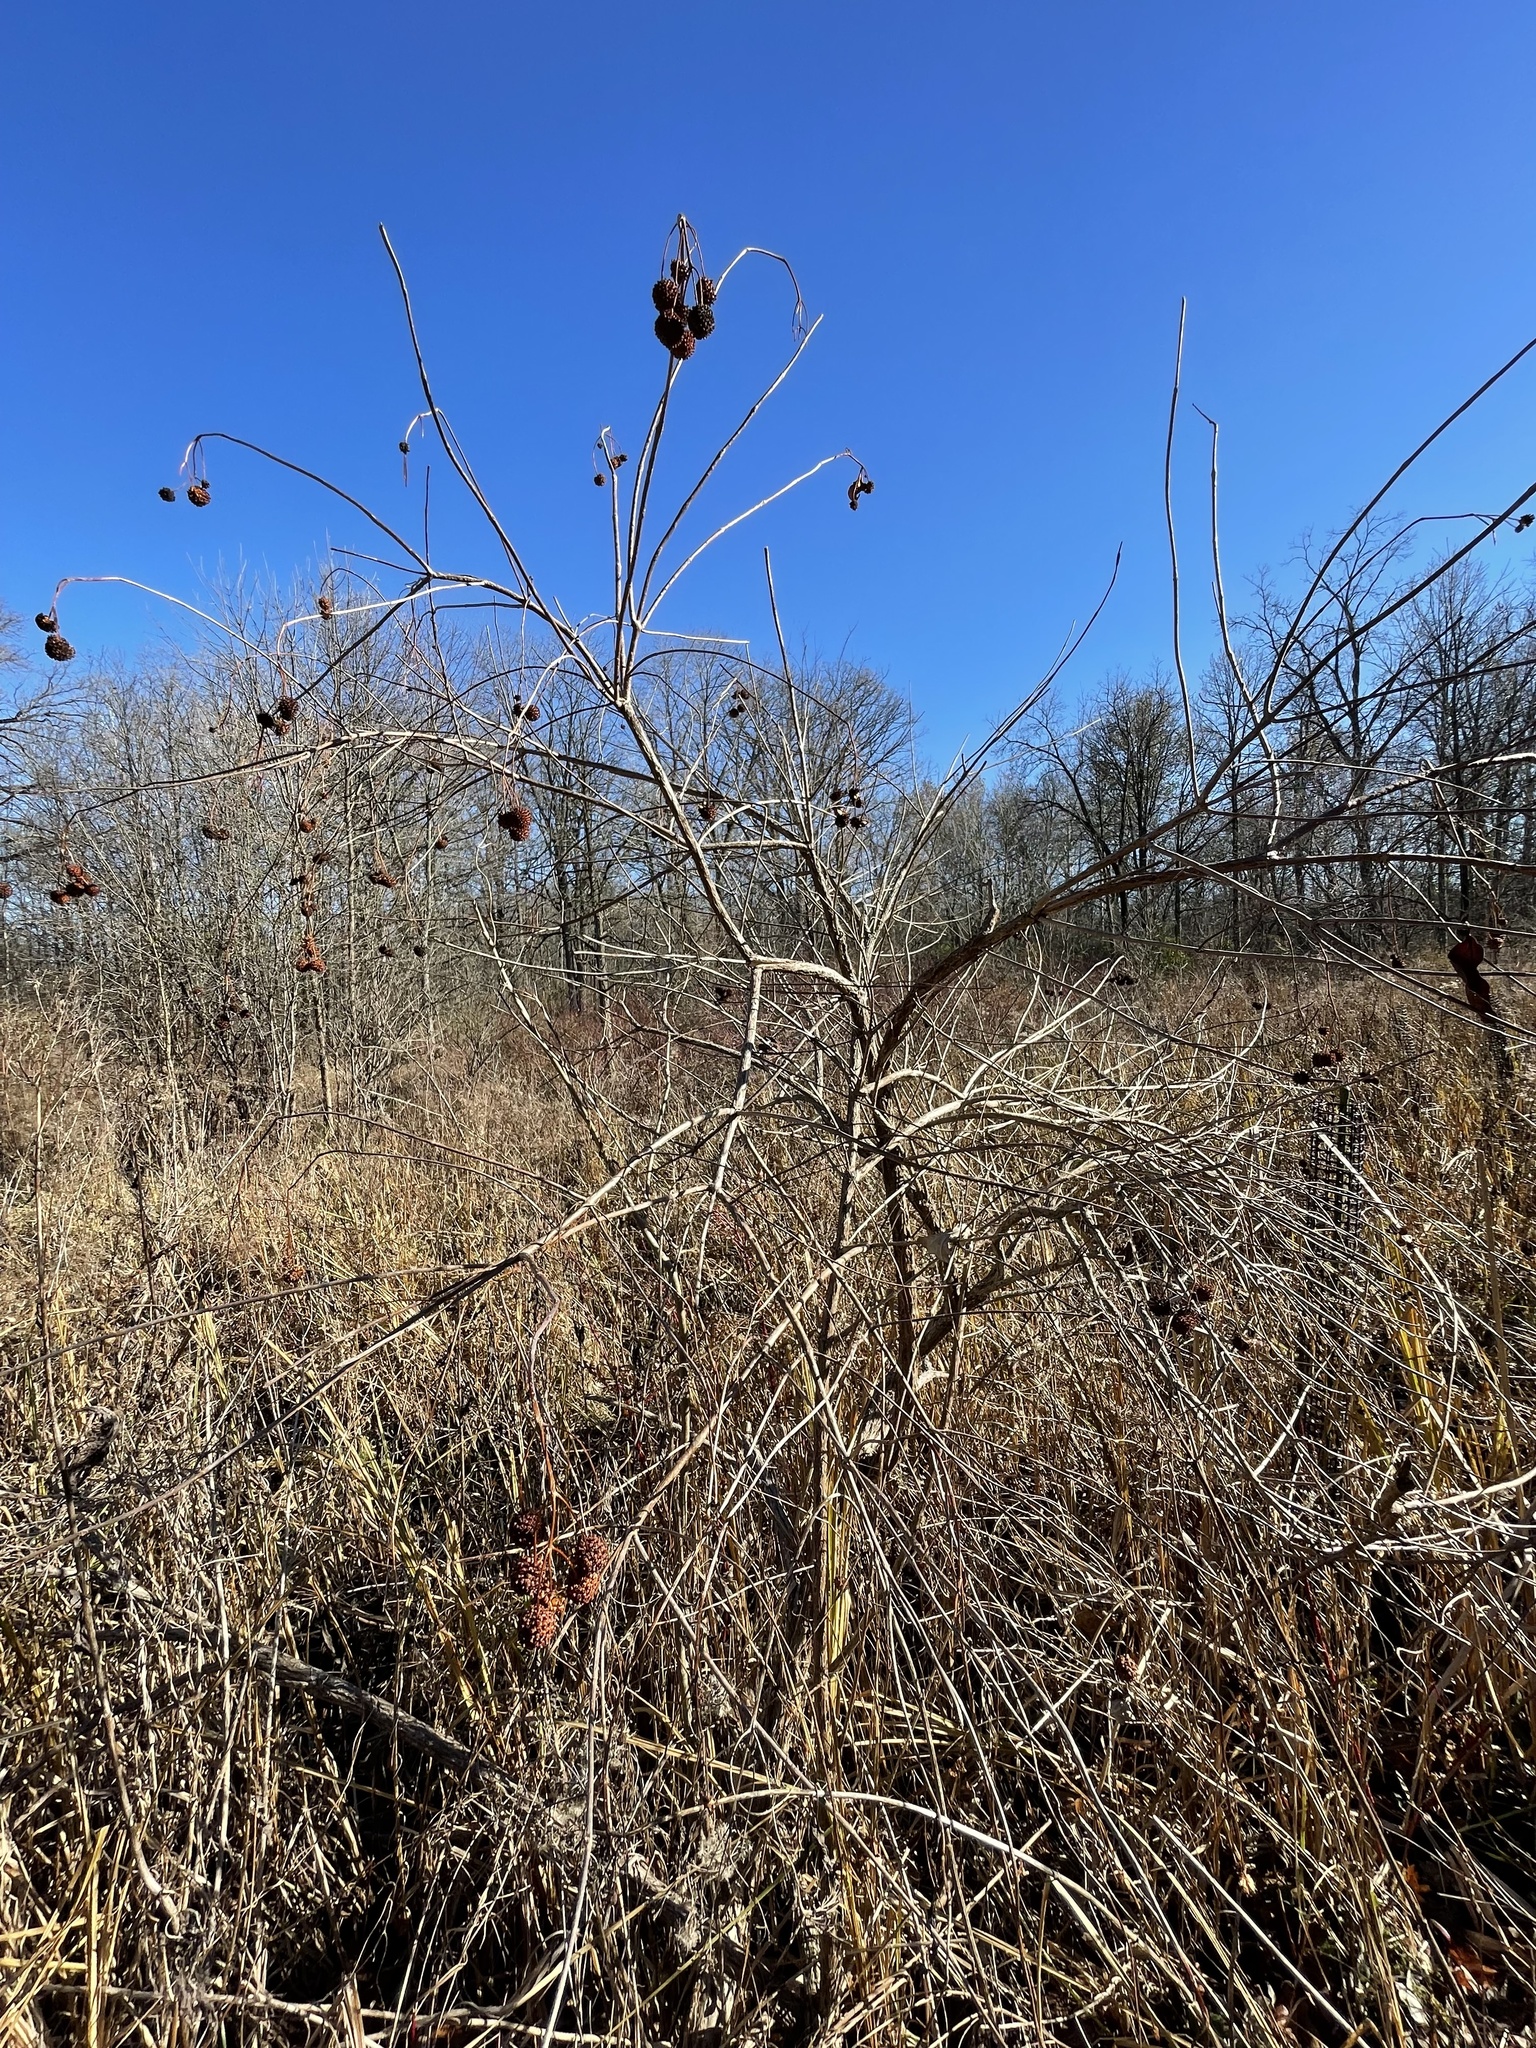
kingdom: Plantae
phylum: Tracheophyta
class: Magnoliopsida
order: Gentianales
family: Rubiaceae
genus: Cephalanthus
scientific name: Cephalanthus occidentalis
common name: Button-willow
